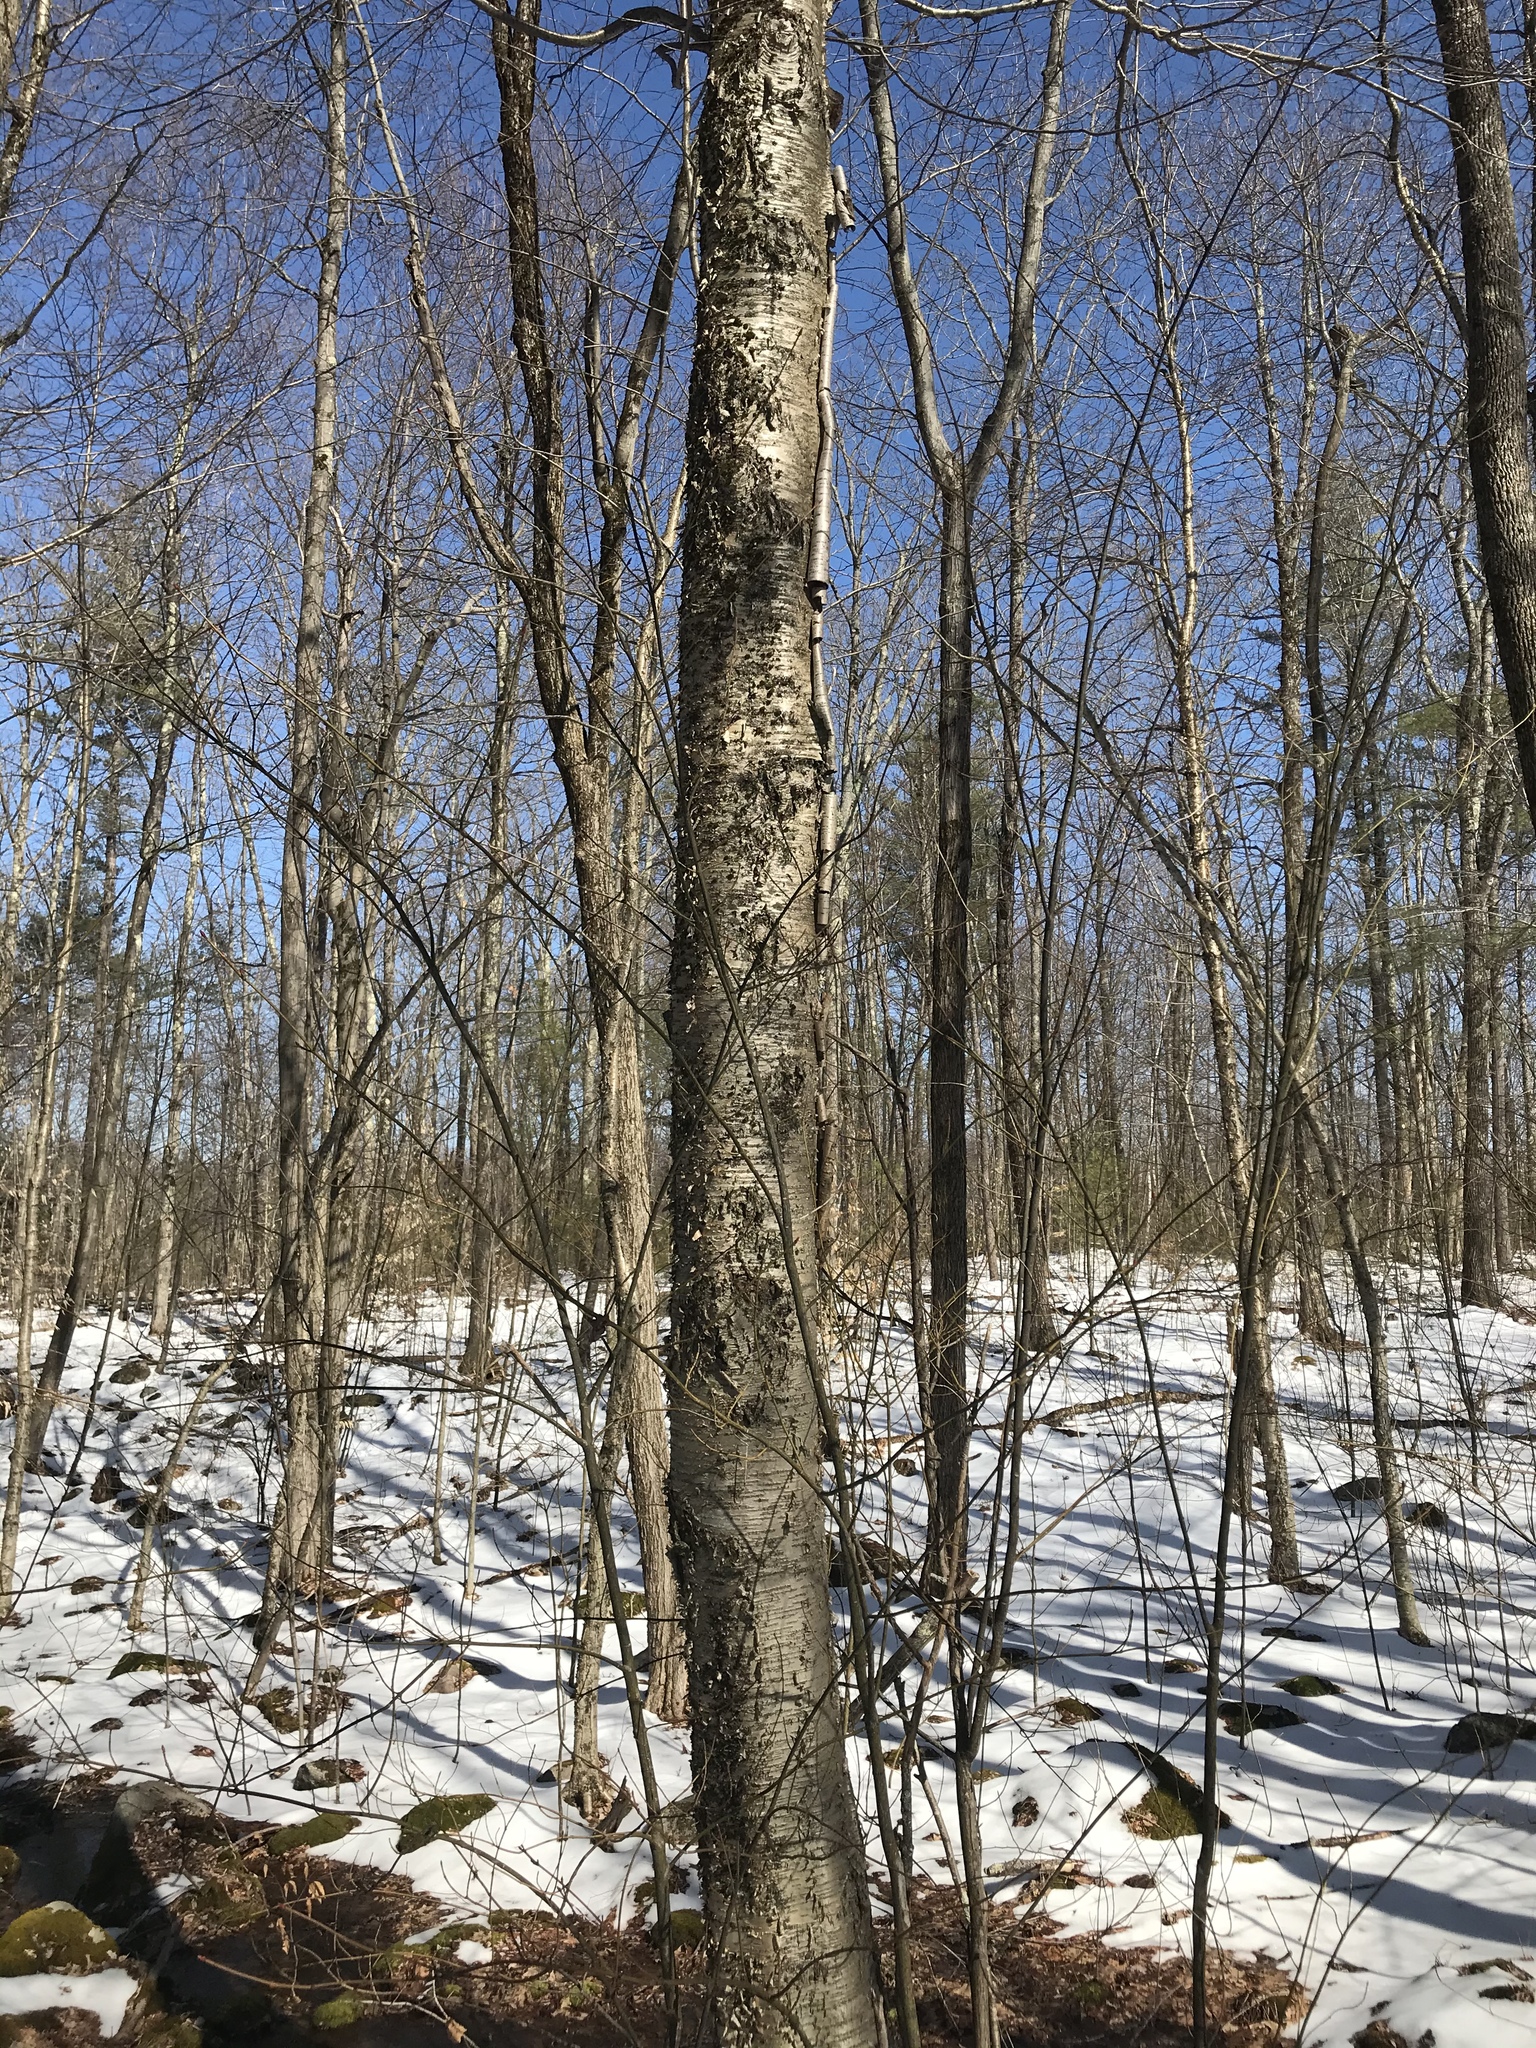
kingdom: Plantae
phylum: Tracheophyta
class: Magnoliopsida
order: Fagales
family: Betulaceae
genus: Betula
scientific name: Betula alleghaniensis
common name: Yellow birch
